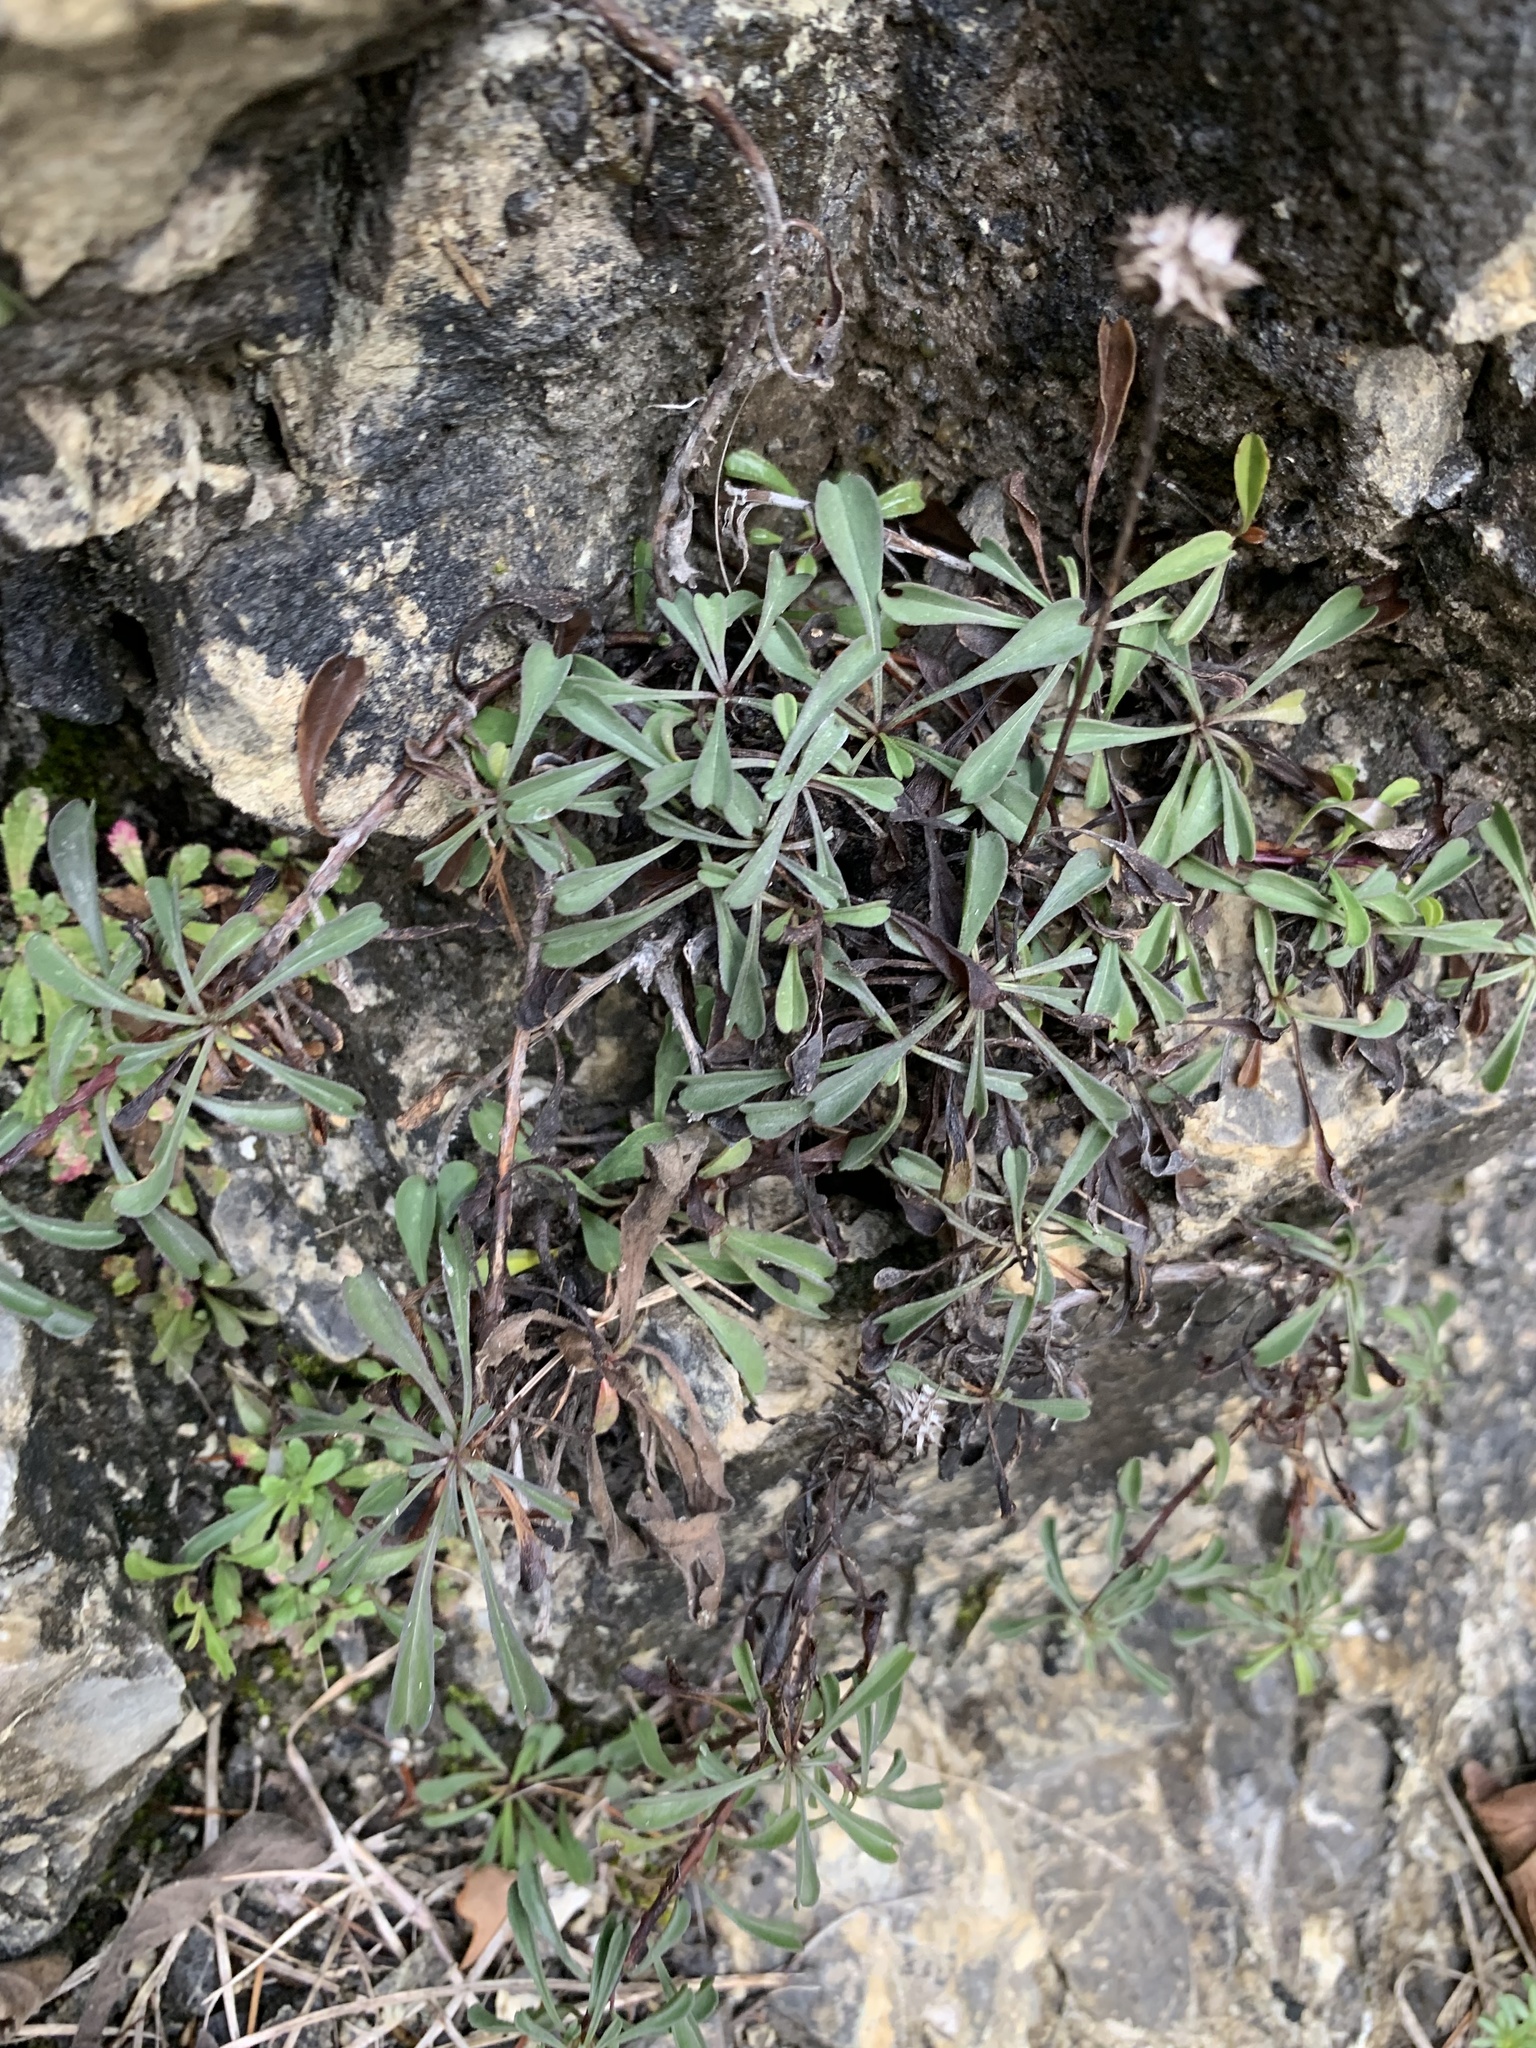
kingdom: Plantae
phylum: Tracheophyta
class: Magnoliopsida
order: Lamiales
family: Plantaginaceae
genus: Globularia
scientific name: Globularia cordifolia
